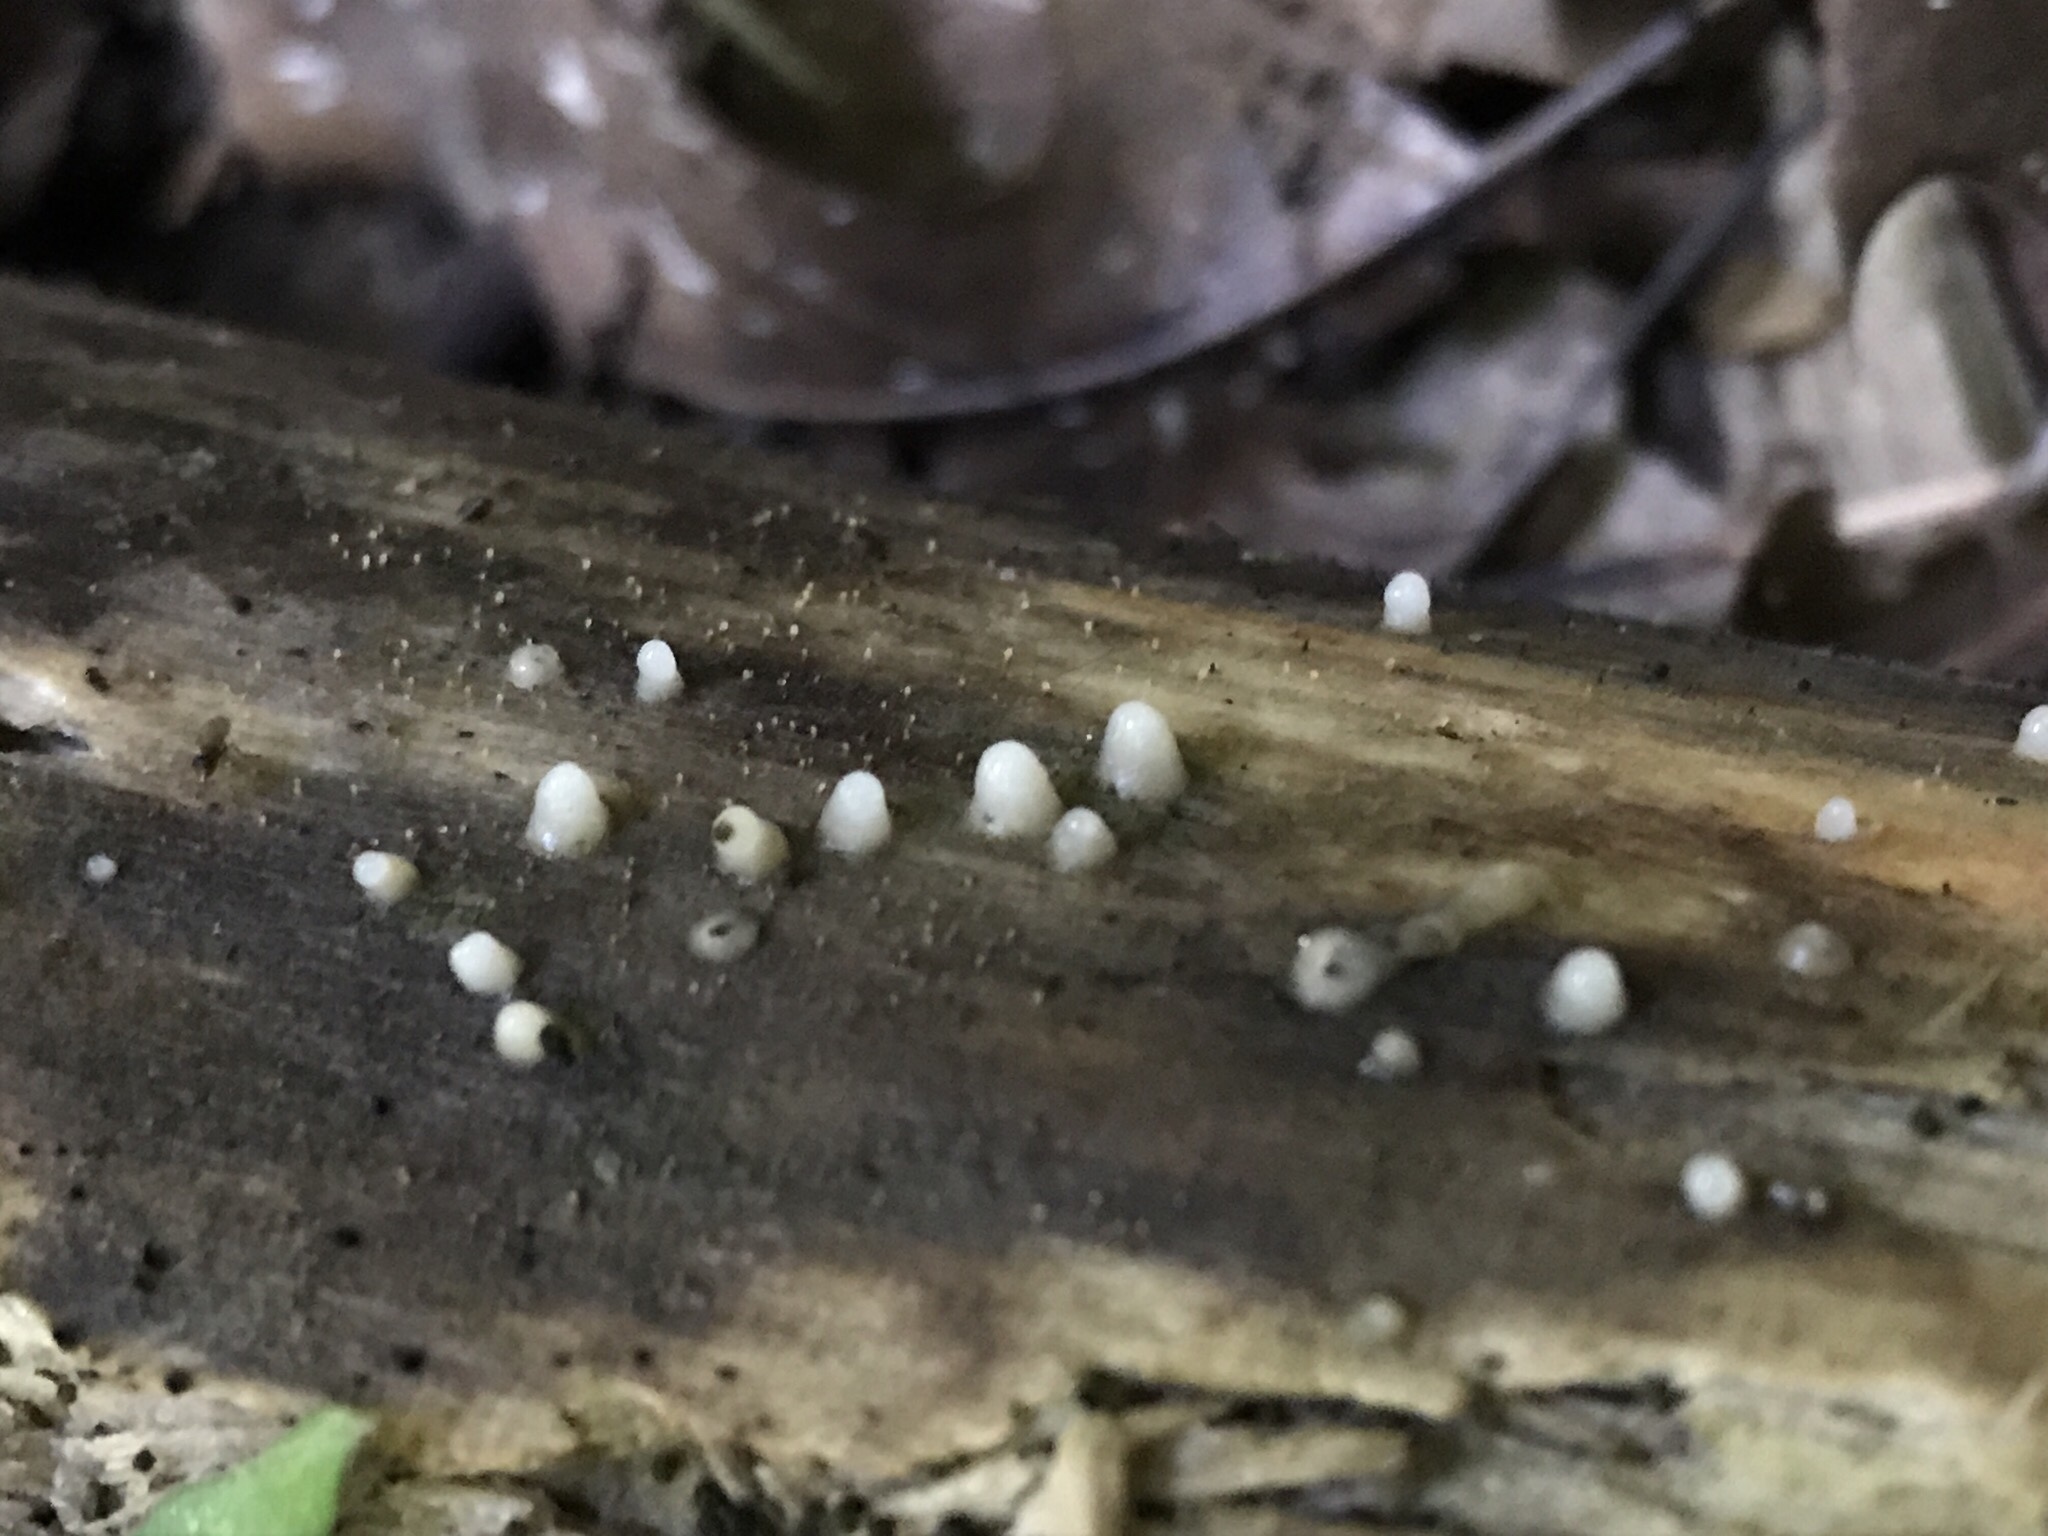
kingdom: Fungi
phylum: Basidiomycota
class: Atractiellomycetes
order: Atractiellales
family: Phleogenaceae
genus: Helicogloea
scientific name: Helicogloea compressa
